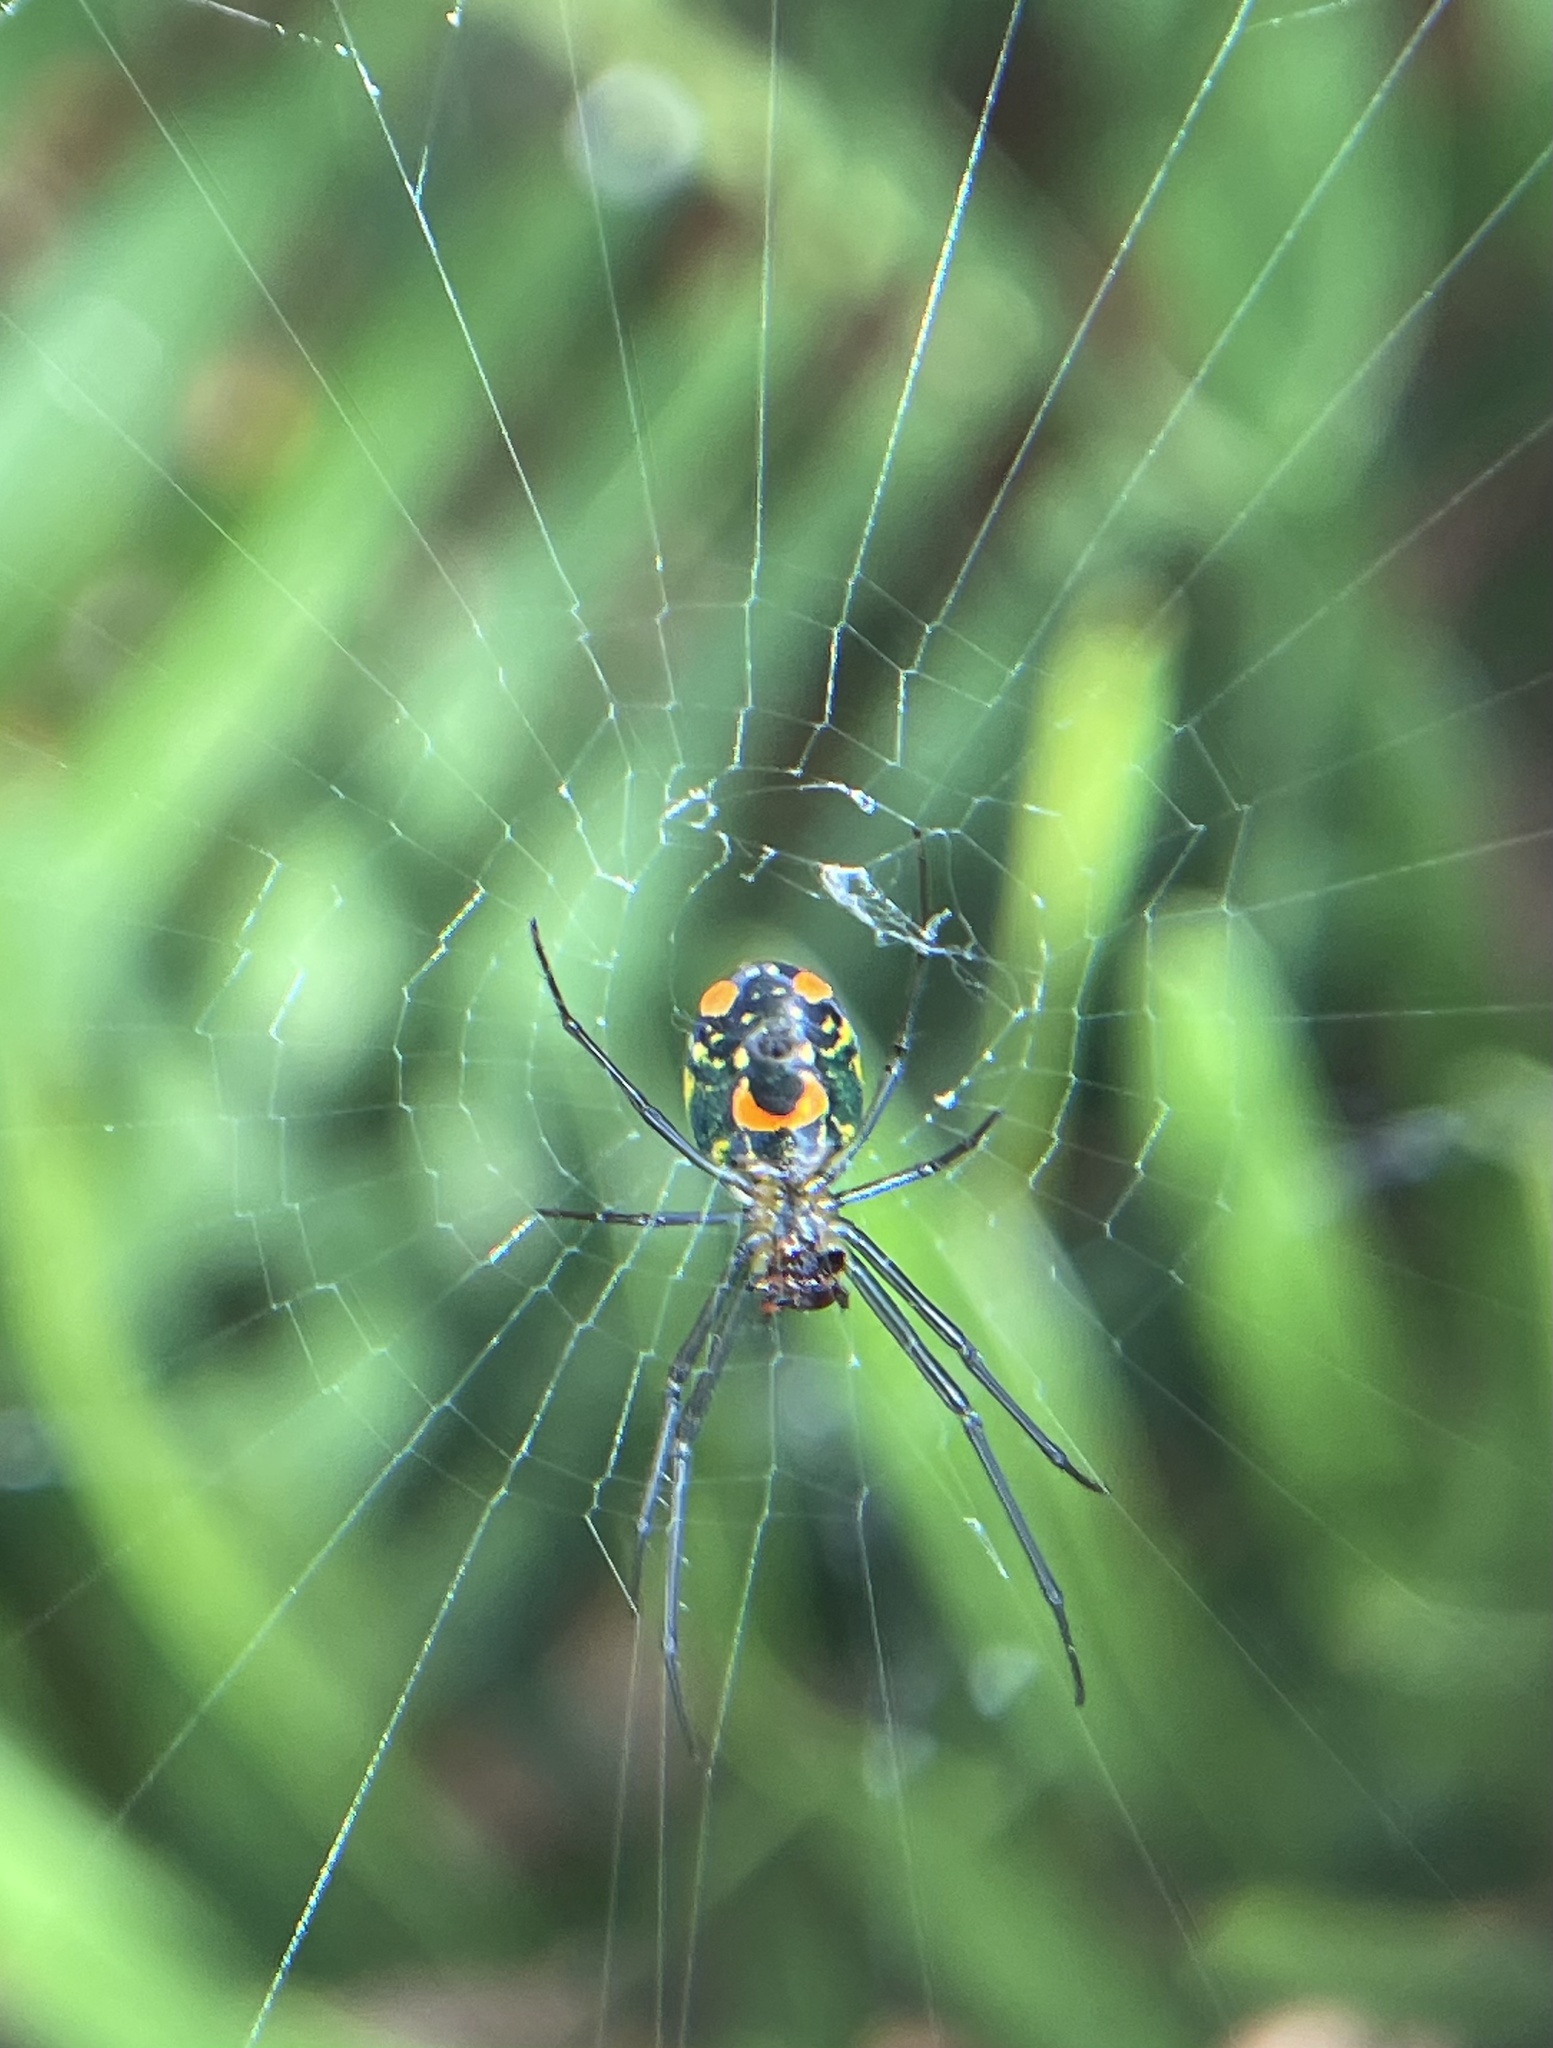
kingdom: Animalia
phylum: Arthropoda
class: Arachnida
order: Araneae
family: Tetragnathidae
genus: Leucauge
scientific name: Leucauge argyrobapta
